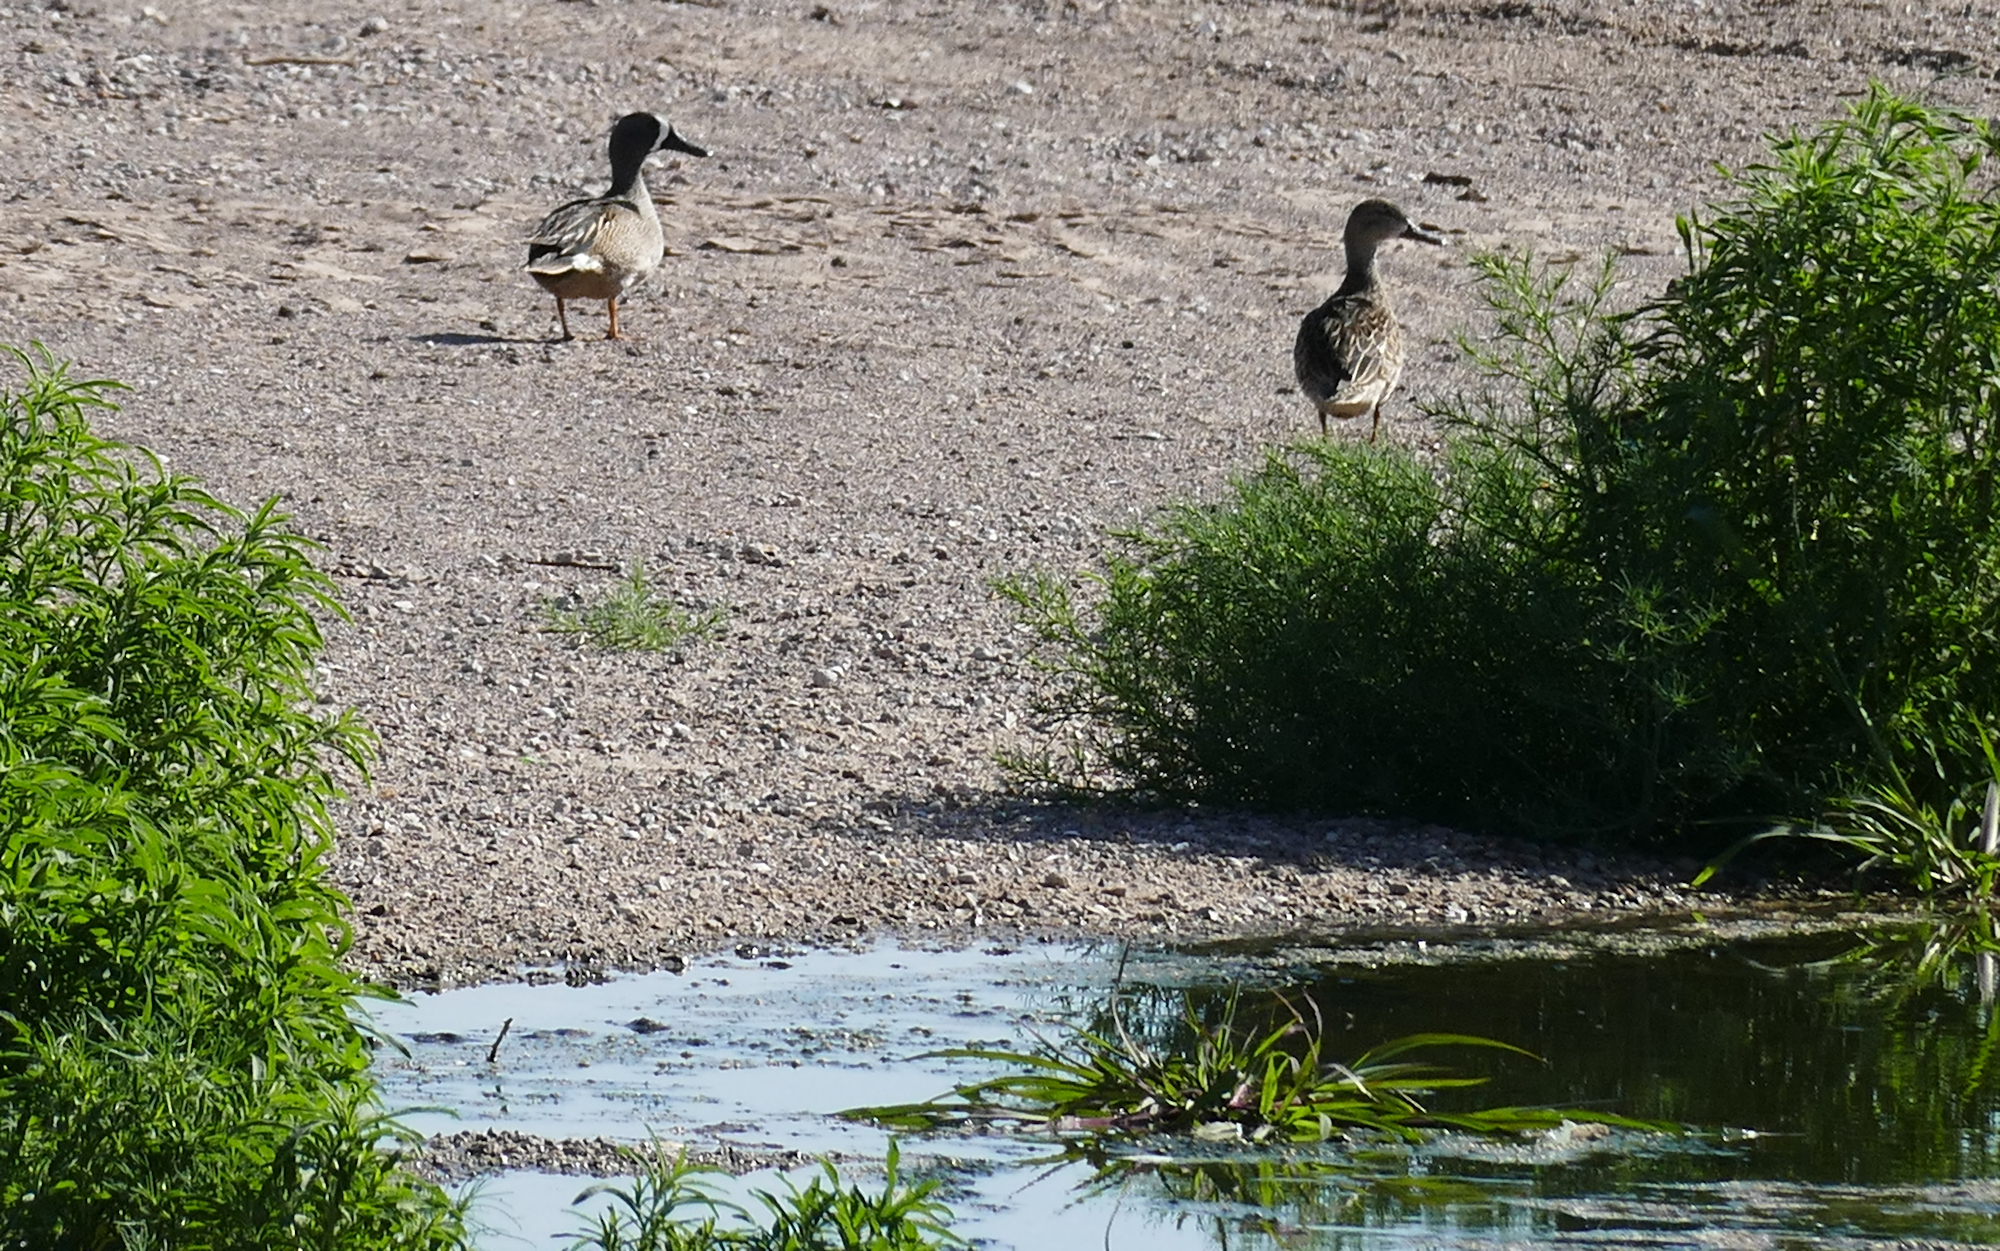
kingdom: Animalia
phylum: Chordata
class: Aves
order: Anseriformes
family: Anatidae
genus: Spatula
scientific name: Spatula discors
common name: Blue-winged teal
